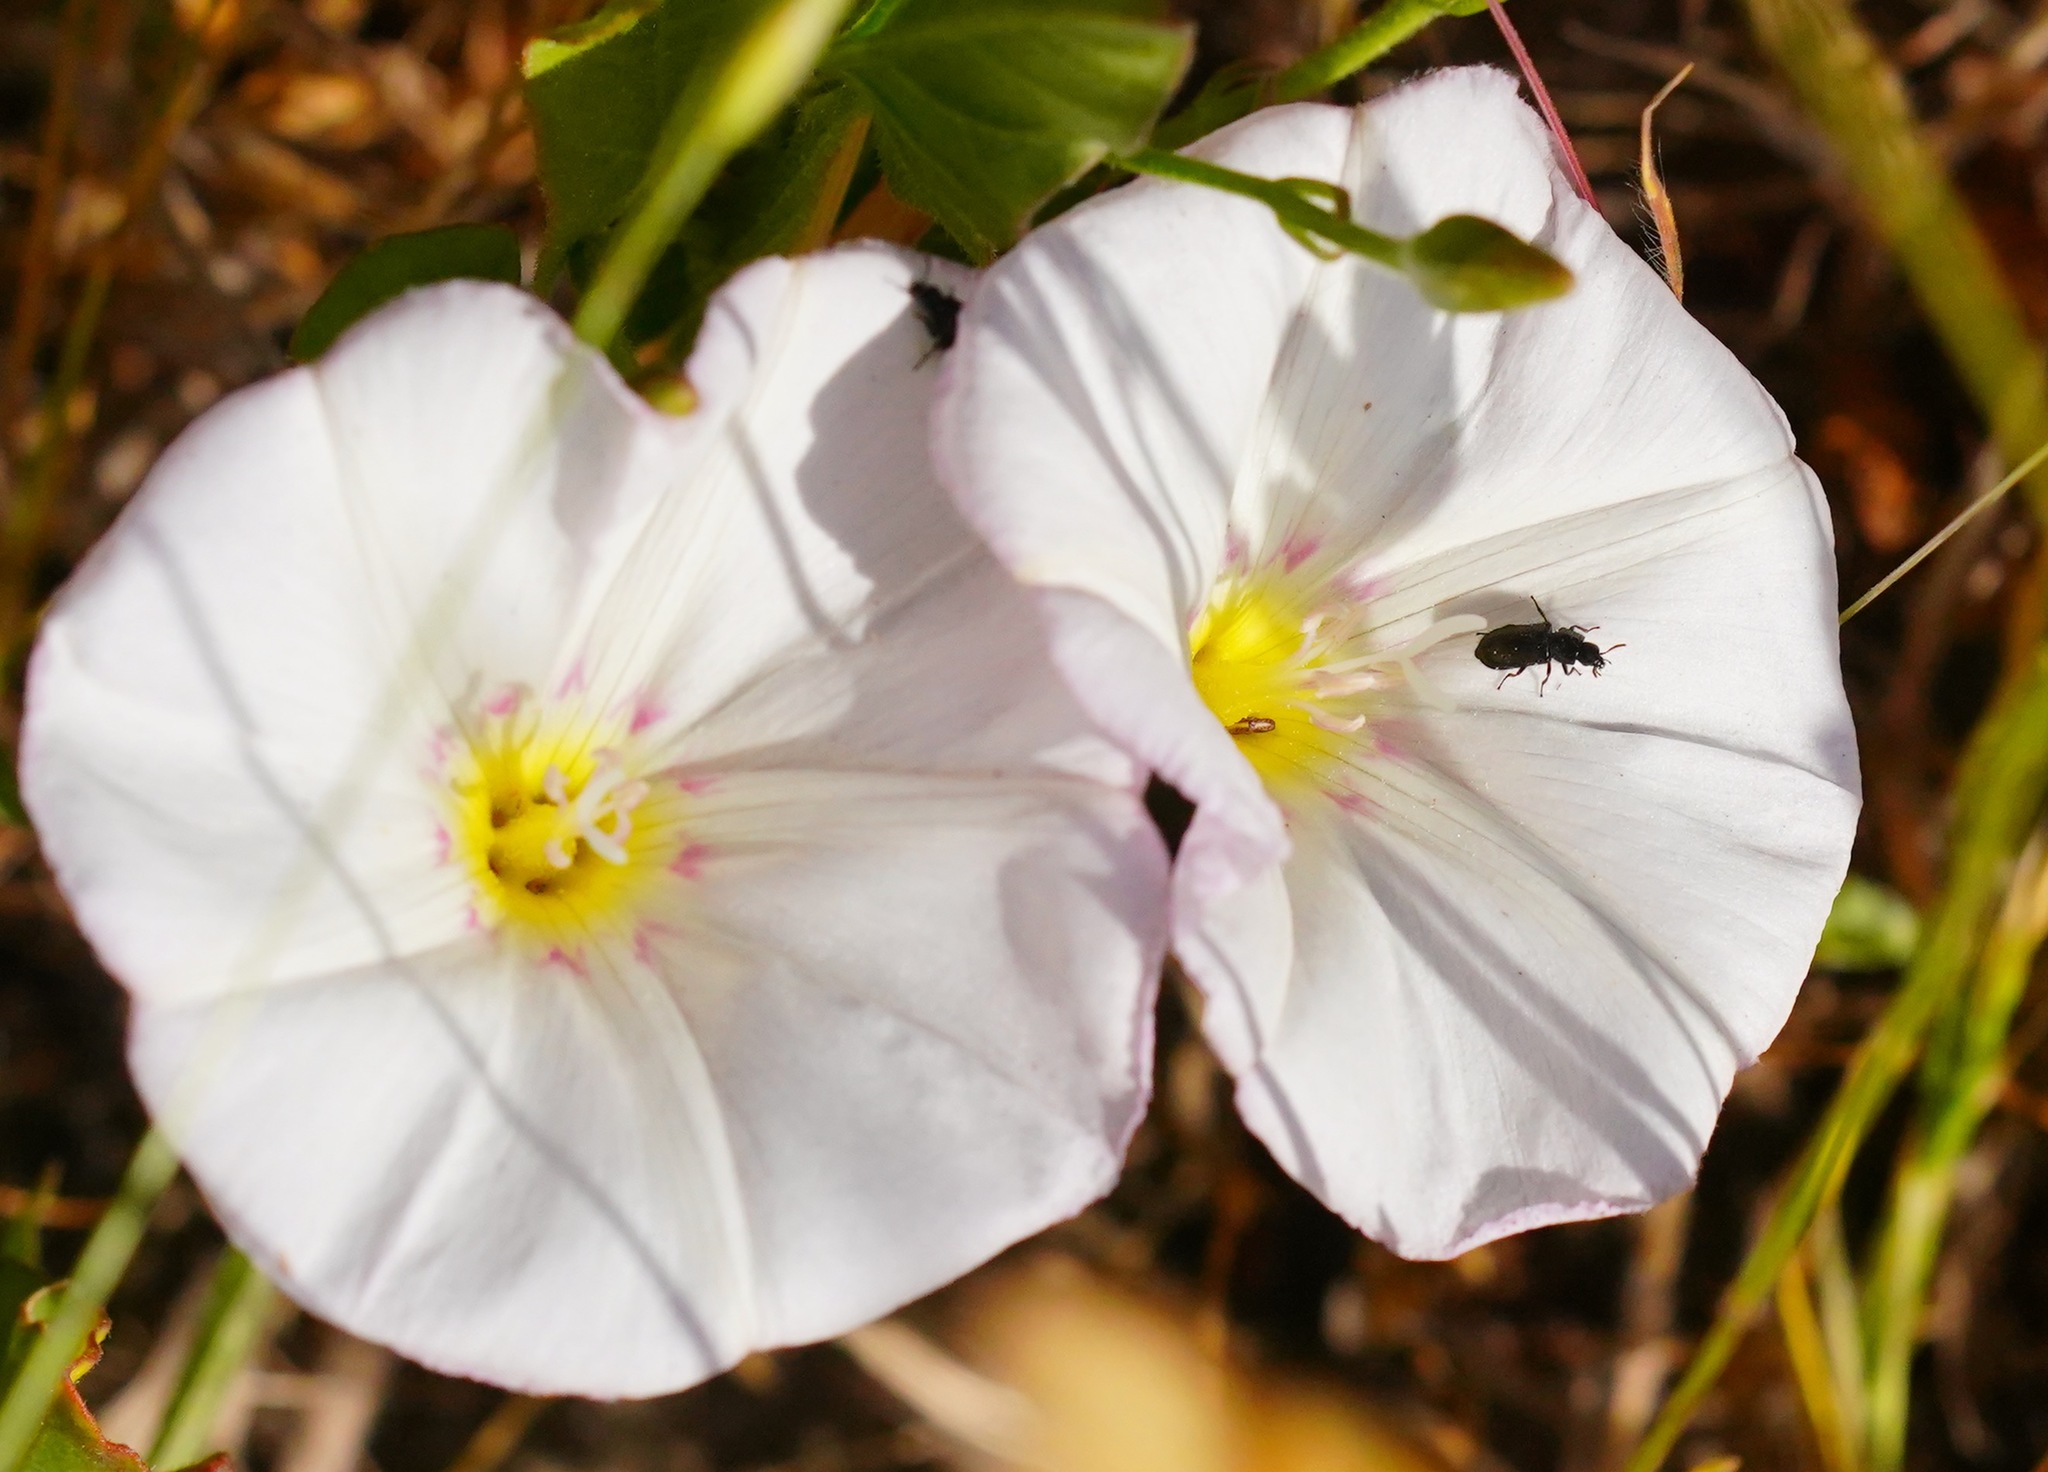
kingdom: Plantae
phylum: Tracheophyta
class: Magnoliopsida
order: Solanales
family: Convolvulaceae
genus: Convolvulus
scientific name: Convolvulus arvensis
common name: Field bindweed
